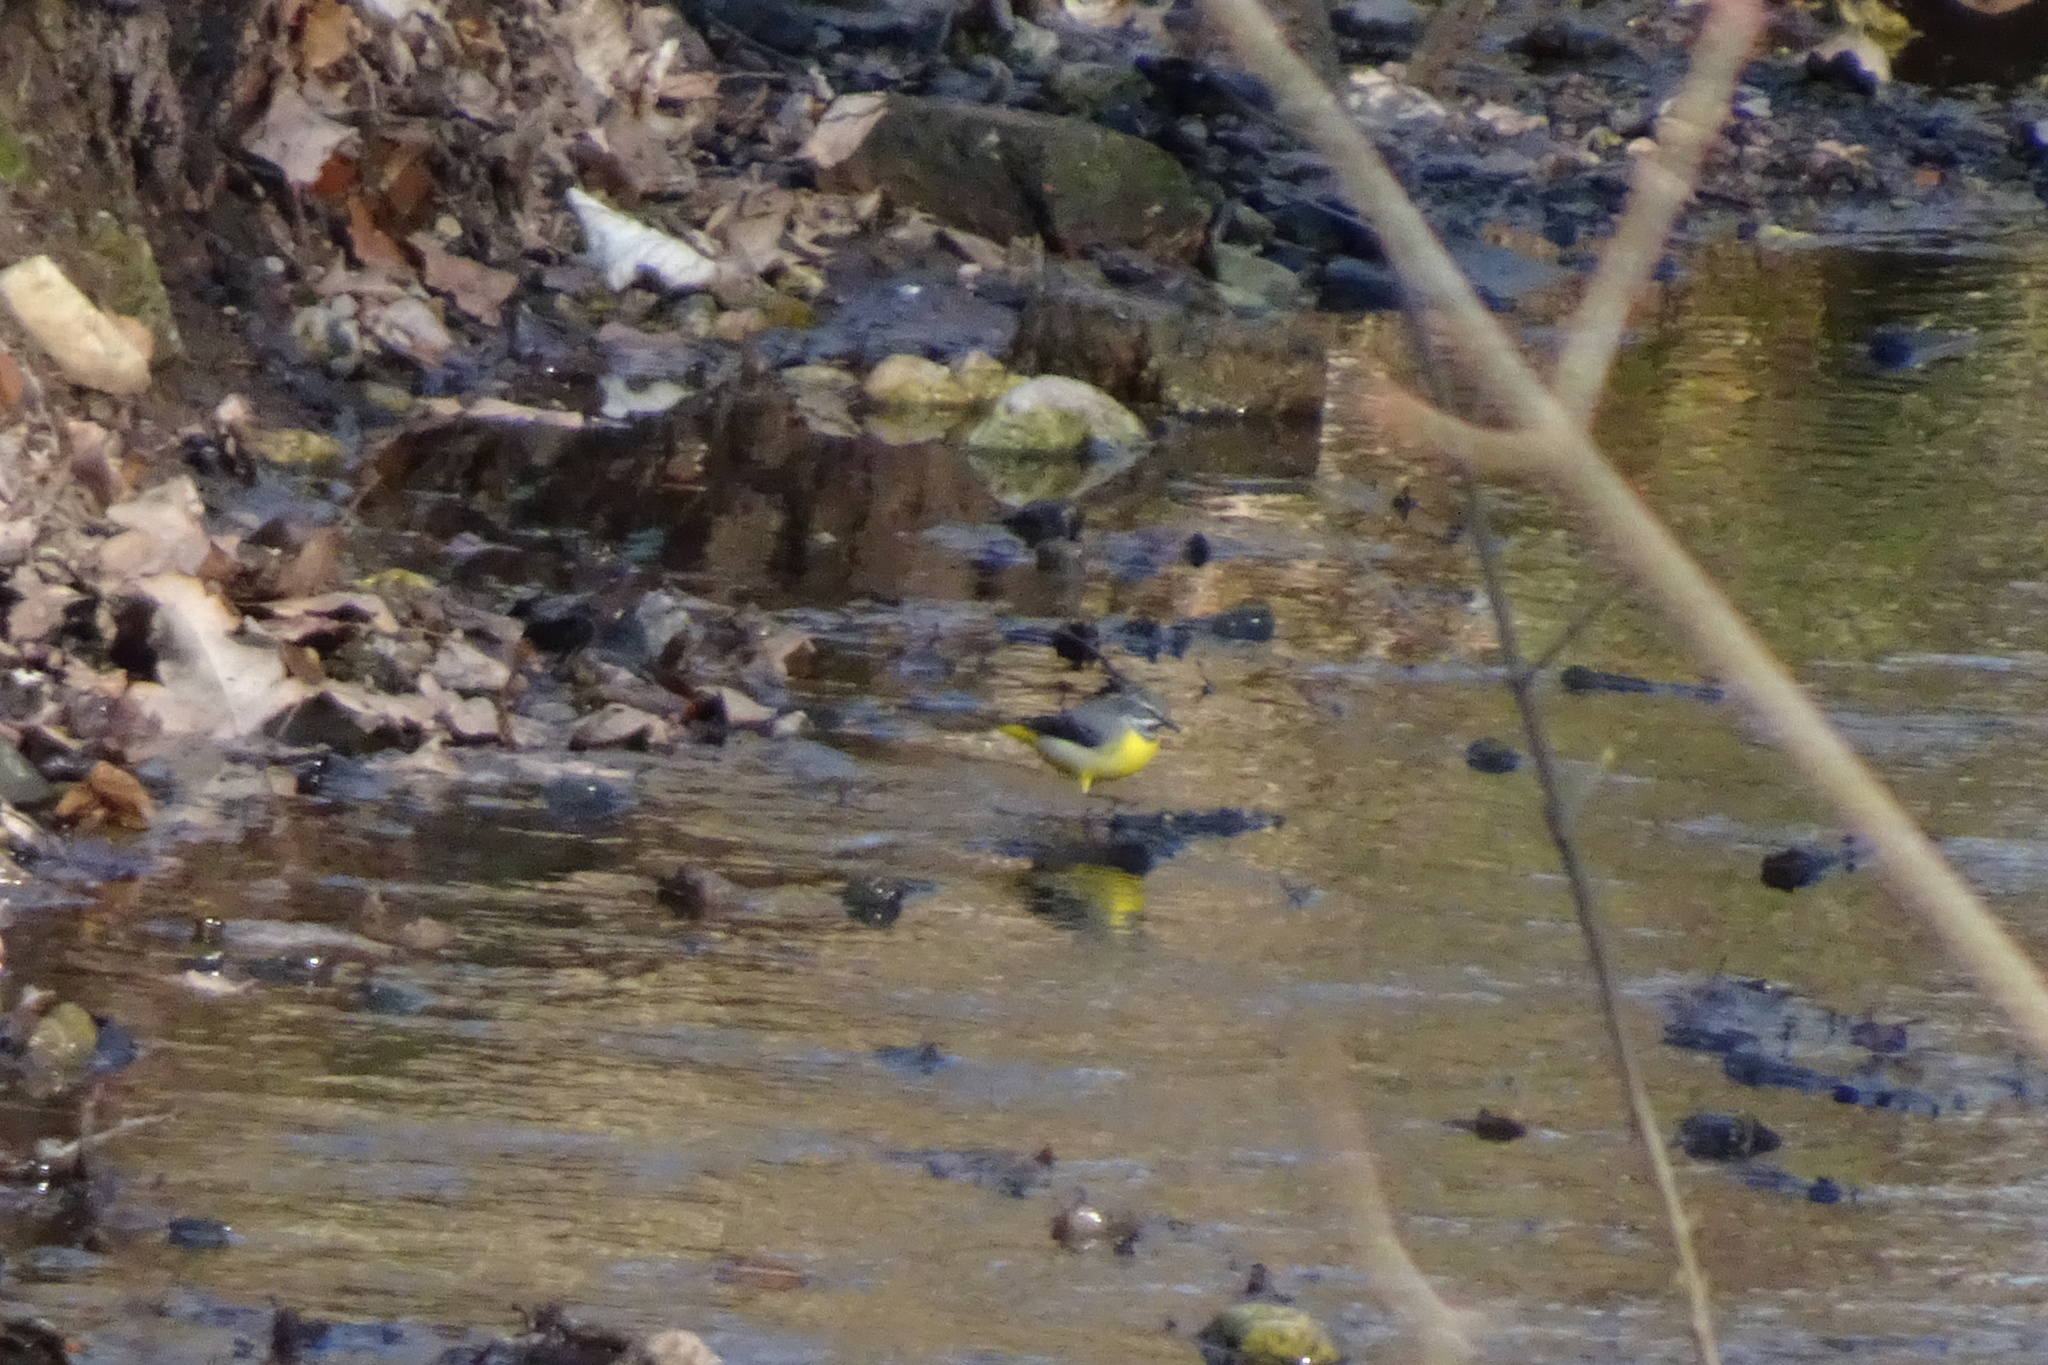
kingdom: Animalia
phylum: Chordata
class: Aves
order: Passeriformes
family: Motacillidae
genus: Motacilla
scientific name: Motacilla cinerea
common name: Grey wagtail
